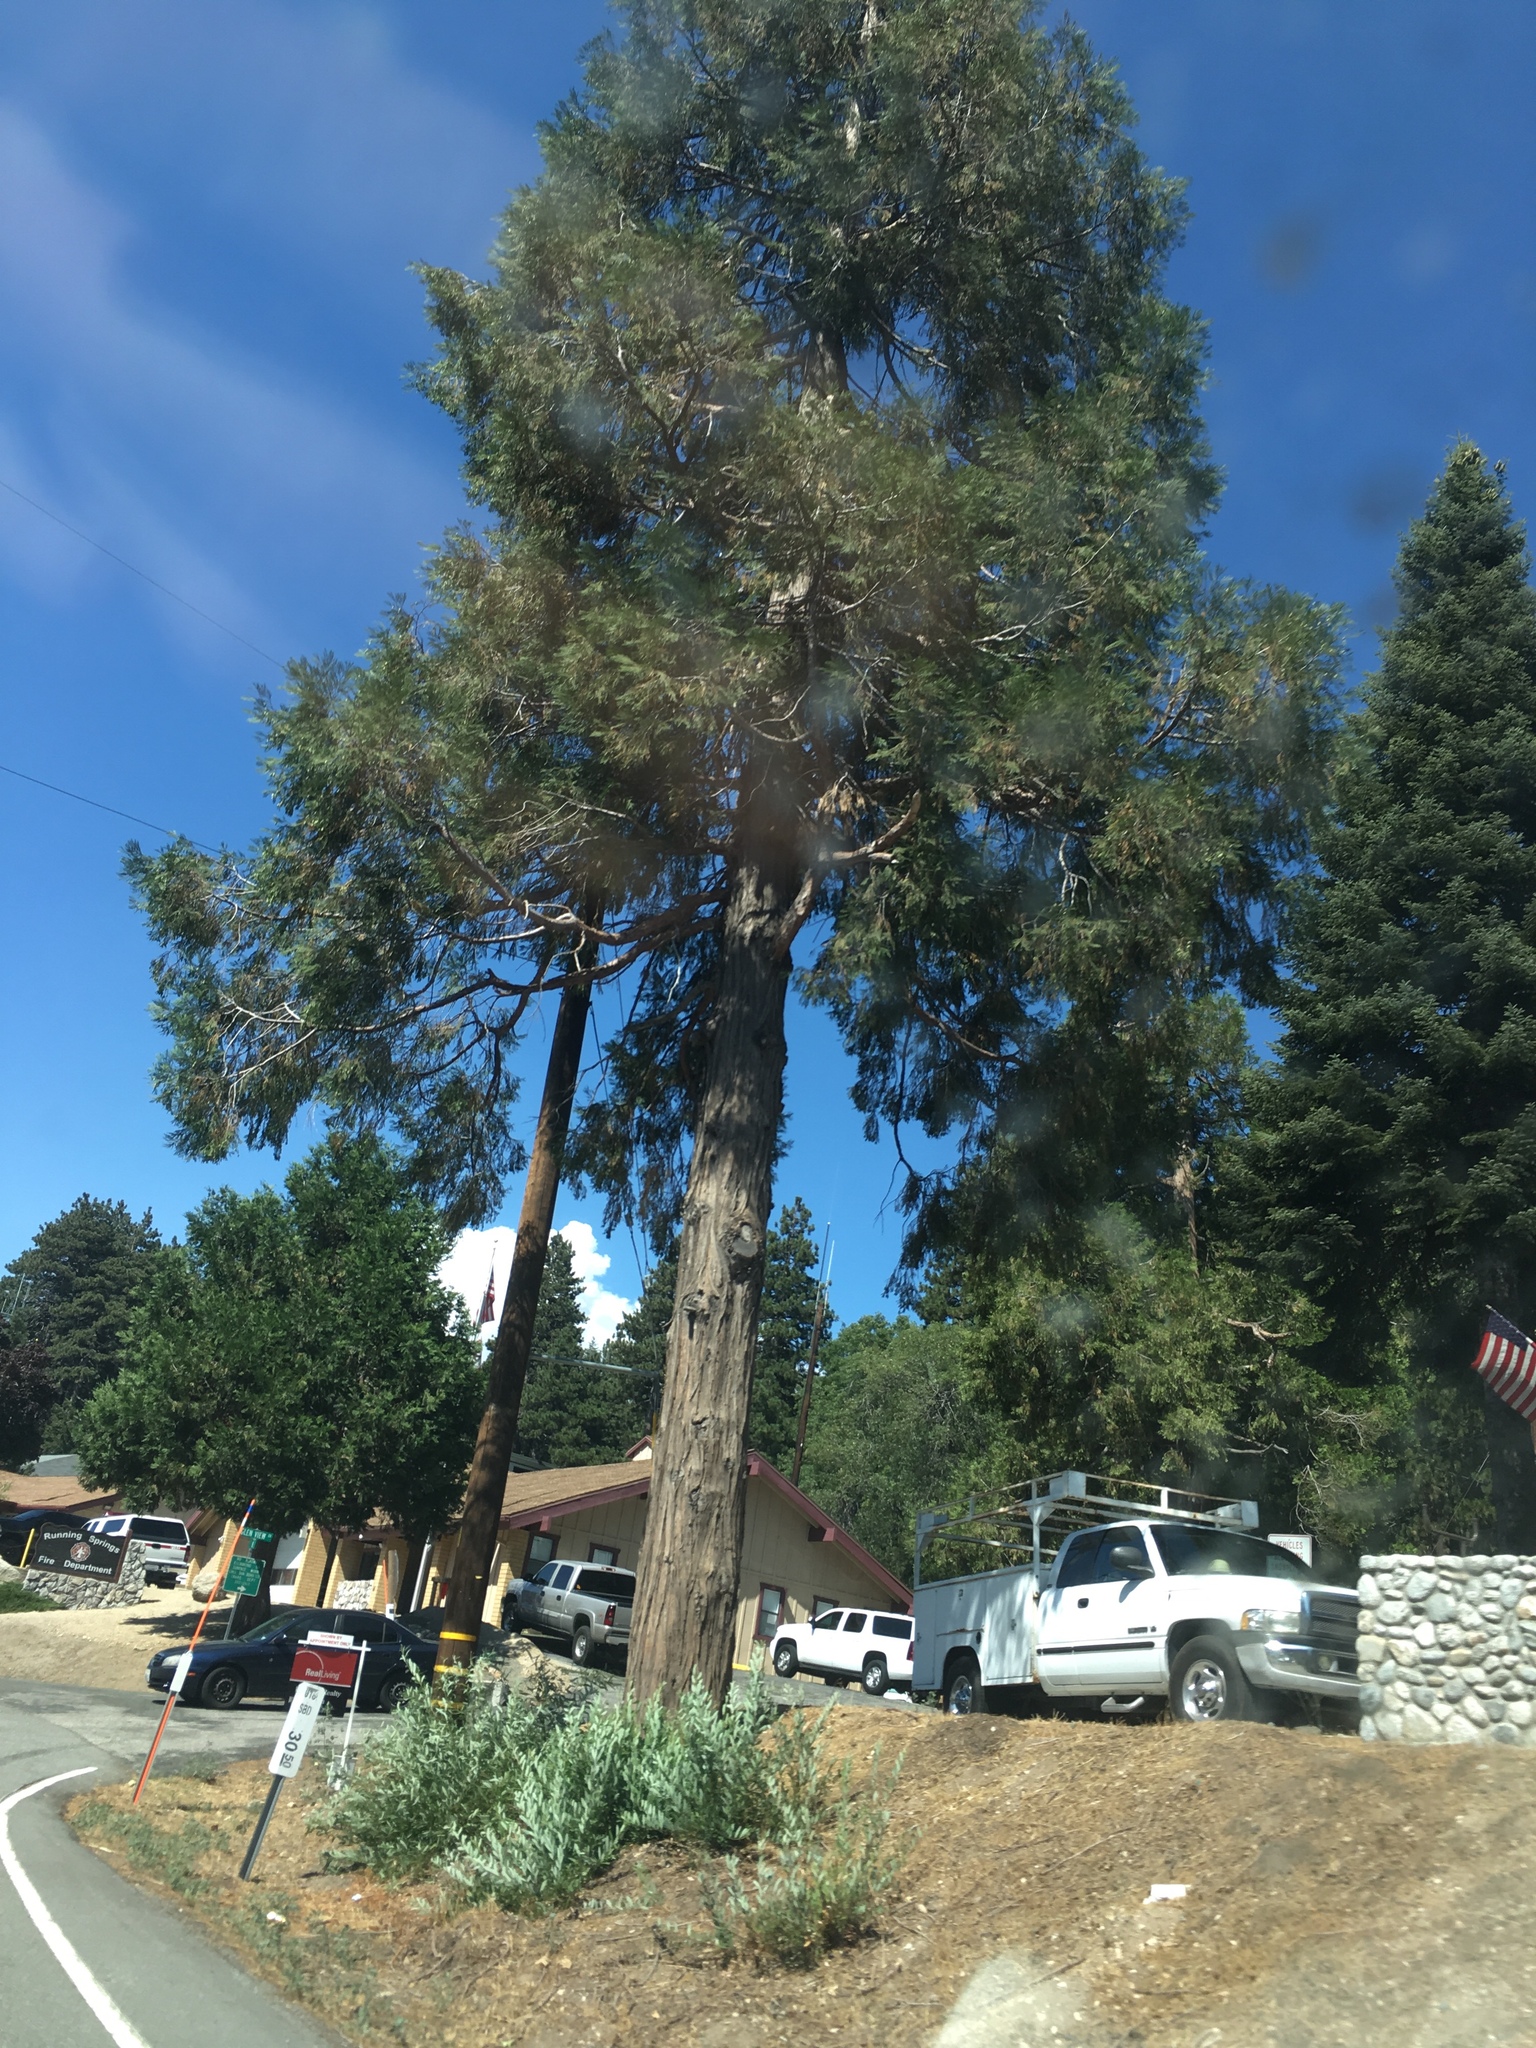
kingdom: Plantae
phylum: Tracheophyta
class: Pinopsida
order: Pinales
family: Cupressaceae
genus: Calocedrus
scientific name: Calocedrus decurrens
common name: Californian incense-cedar
